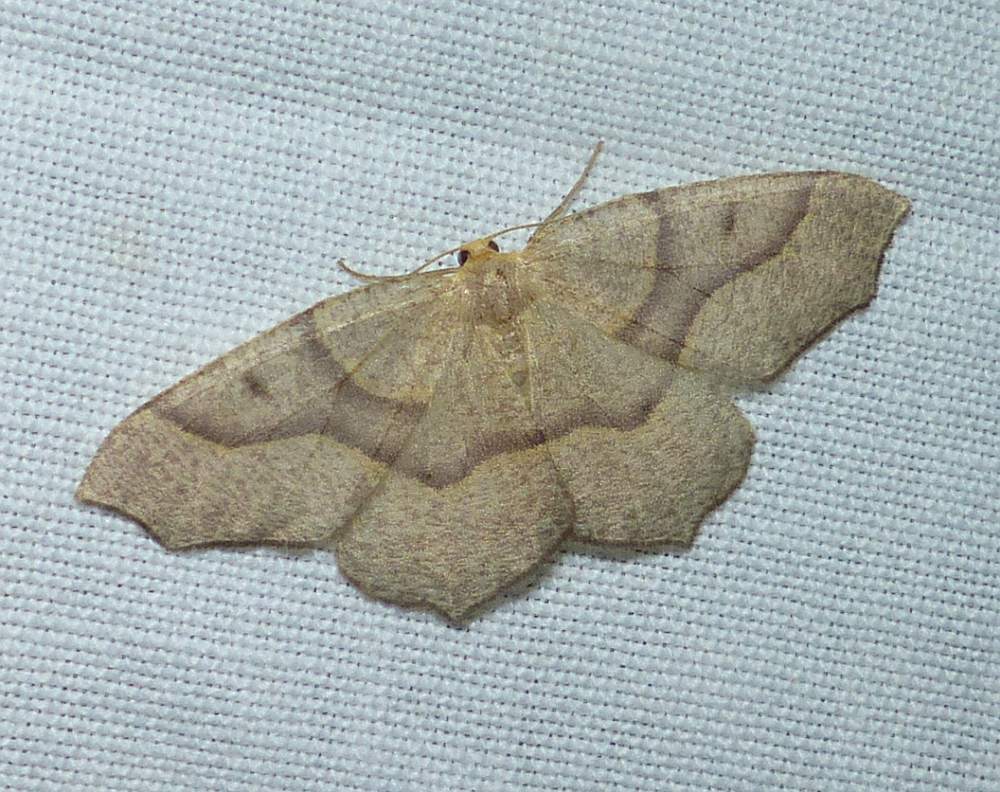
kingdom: Animalia
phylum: Arthropoda
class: Insecta
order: Lepidoptera
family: Geometridae
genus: Lambdina
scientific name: Lambdina fiscellaria
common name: Hemlock looper
